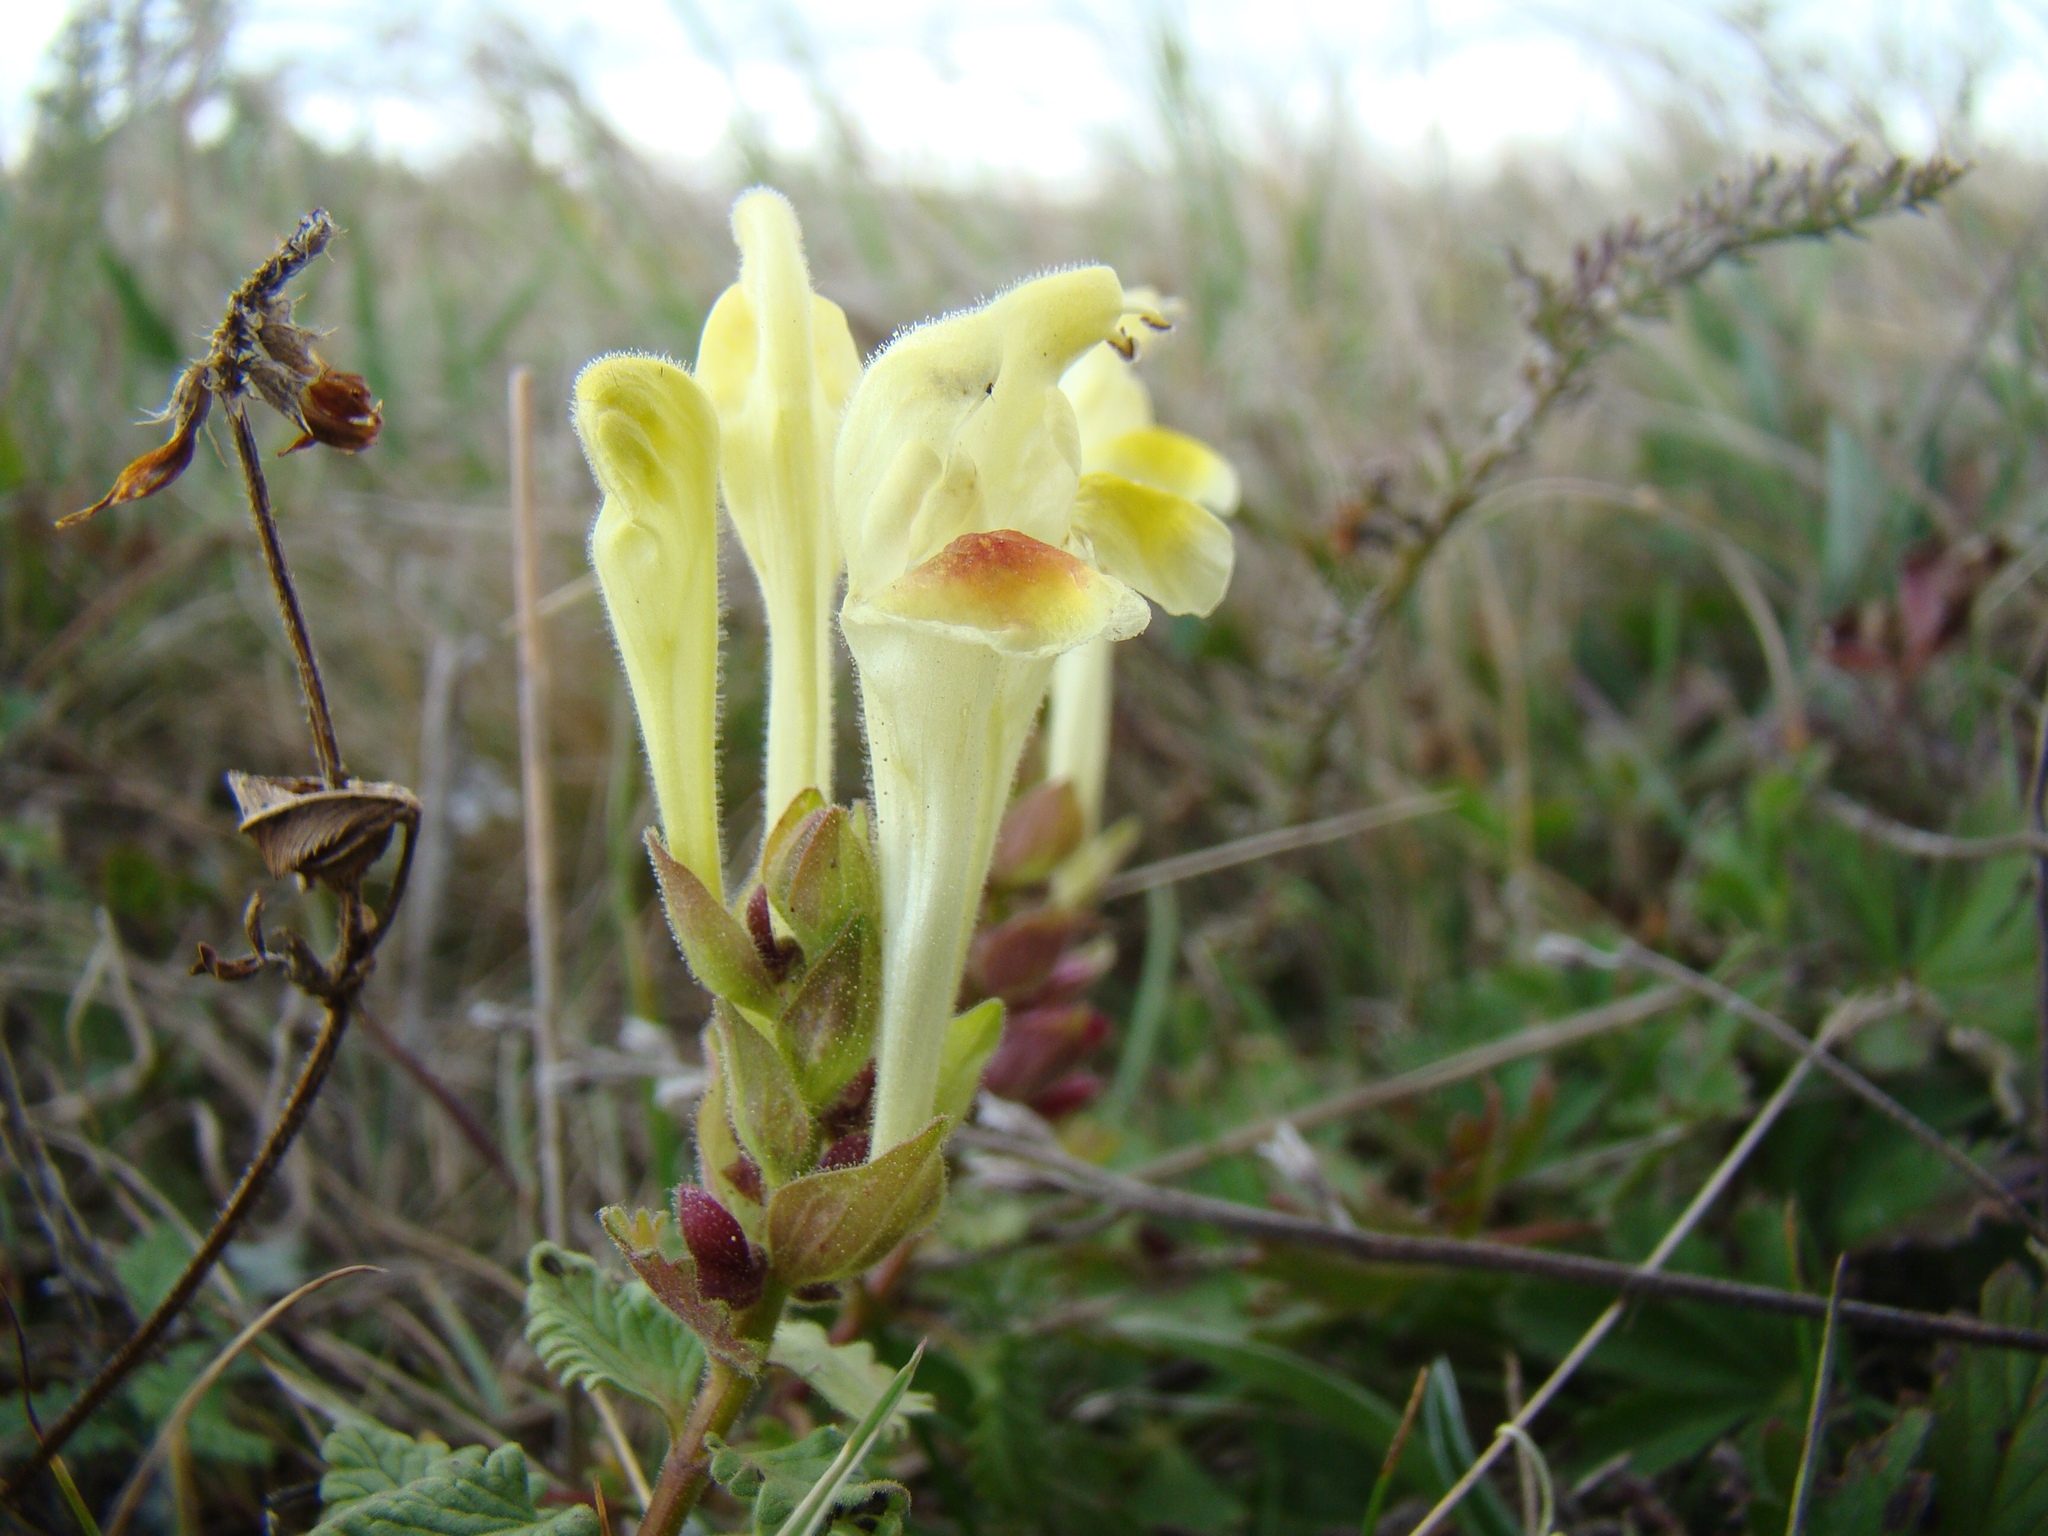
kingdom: Plantae
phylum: Tracheophyta
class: Magnoliopsida
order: Lamiales
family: Lamiaceae
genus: Scutellaria
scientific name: Scutellaria orientalis
